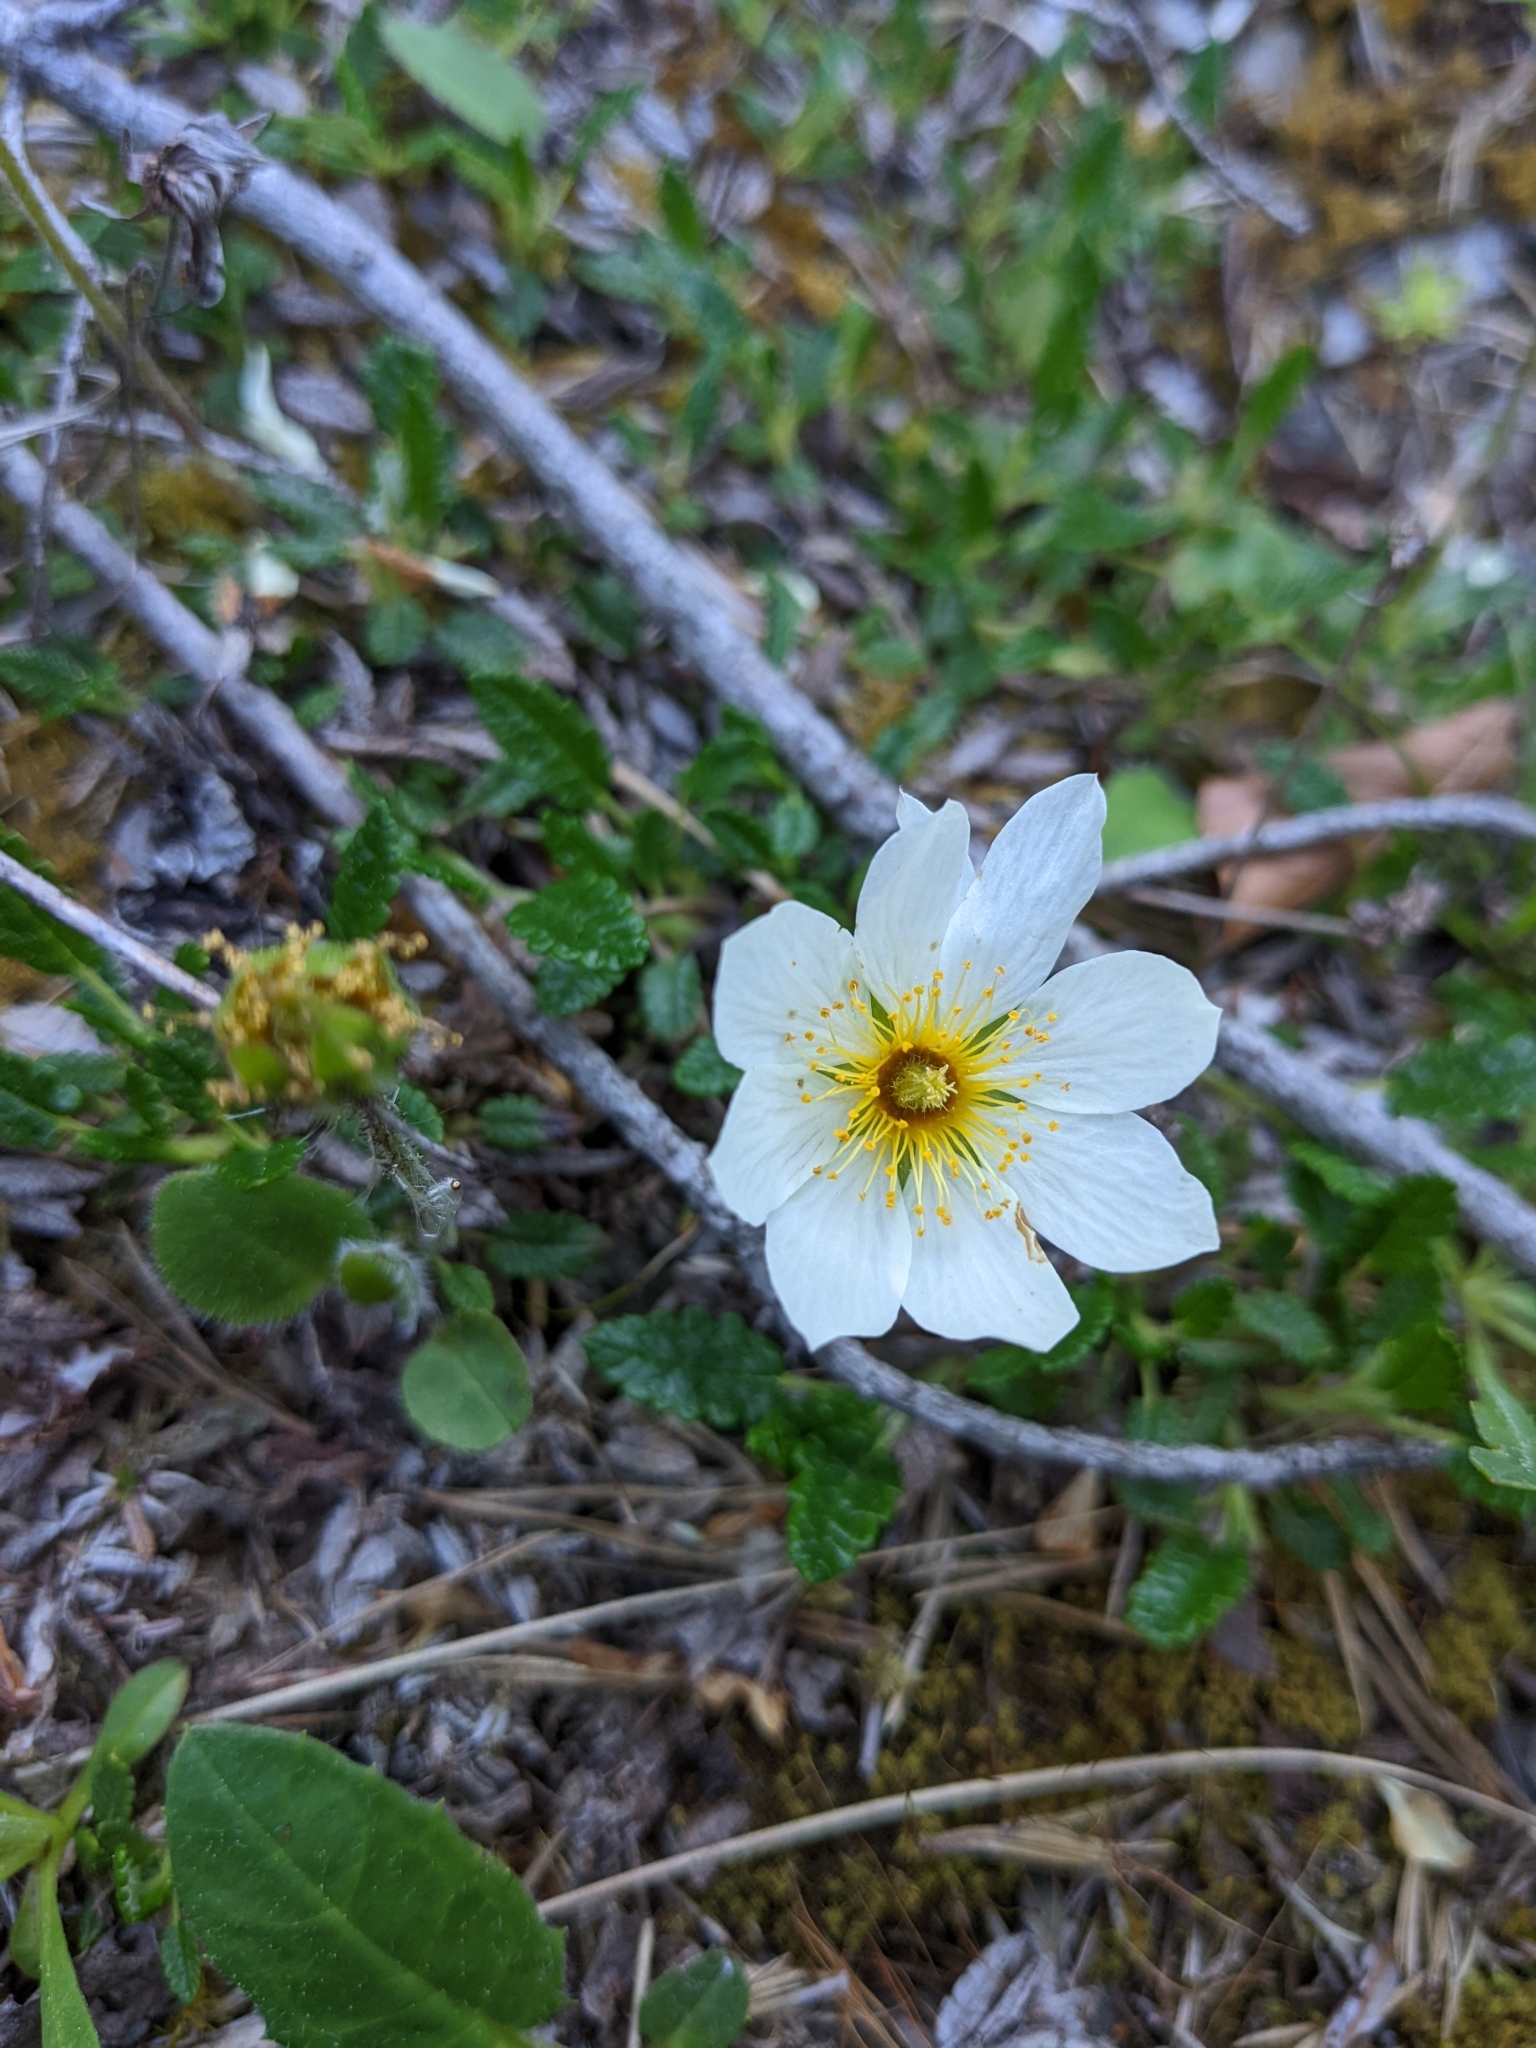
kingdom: Plantae
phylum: Tracheophyta
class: Magnoliopsida
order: Rosales
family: Rosaceae
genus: Dryas
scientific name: Dryas octopetala
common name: Eight-petal mountain-avens
